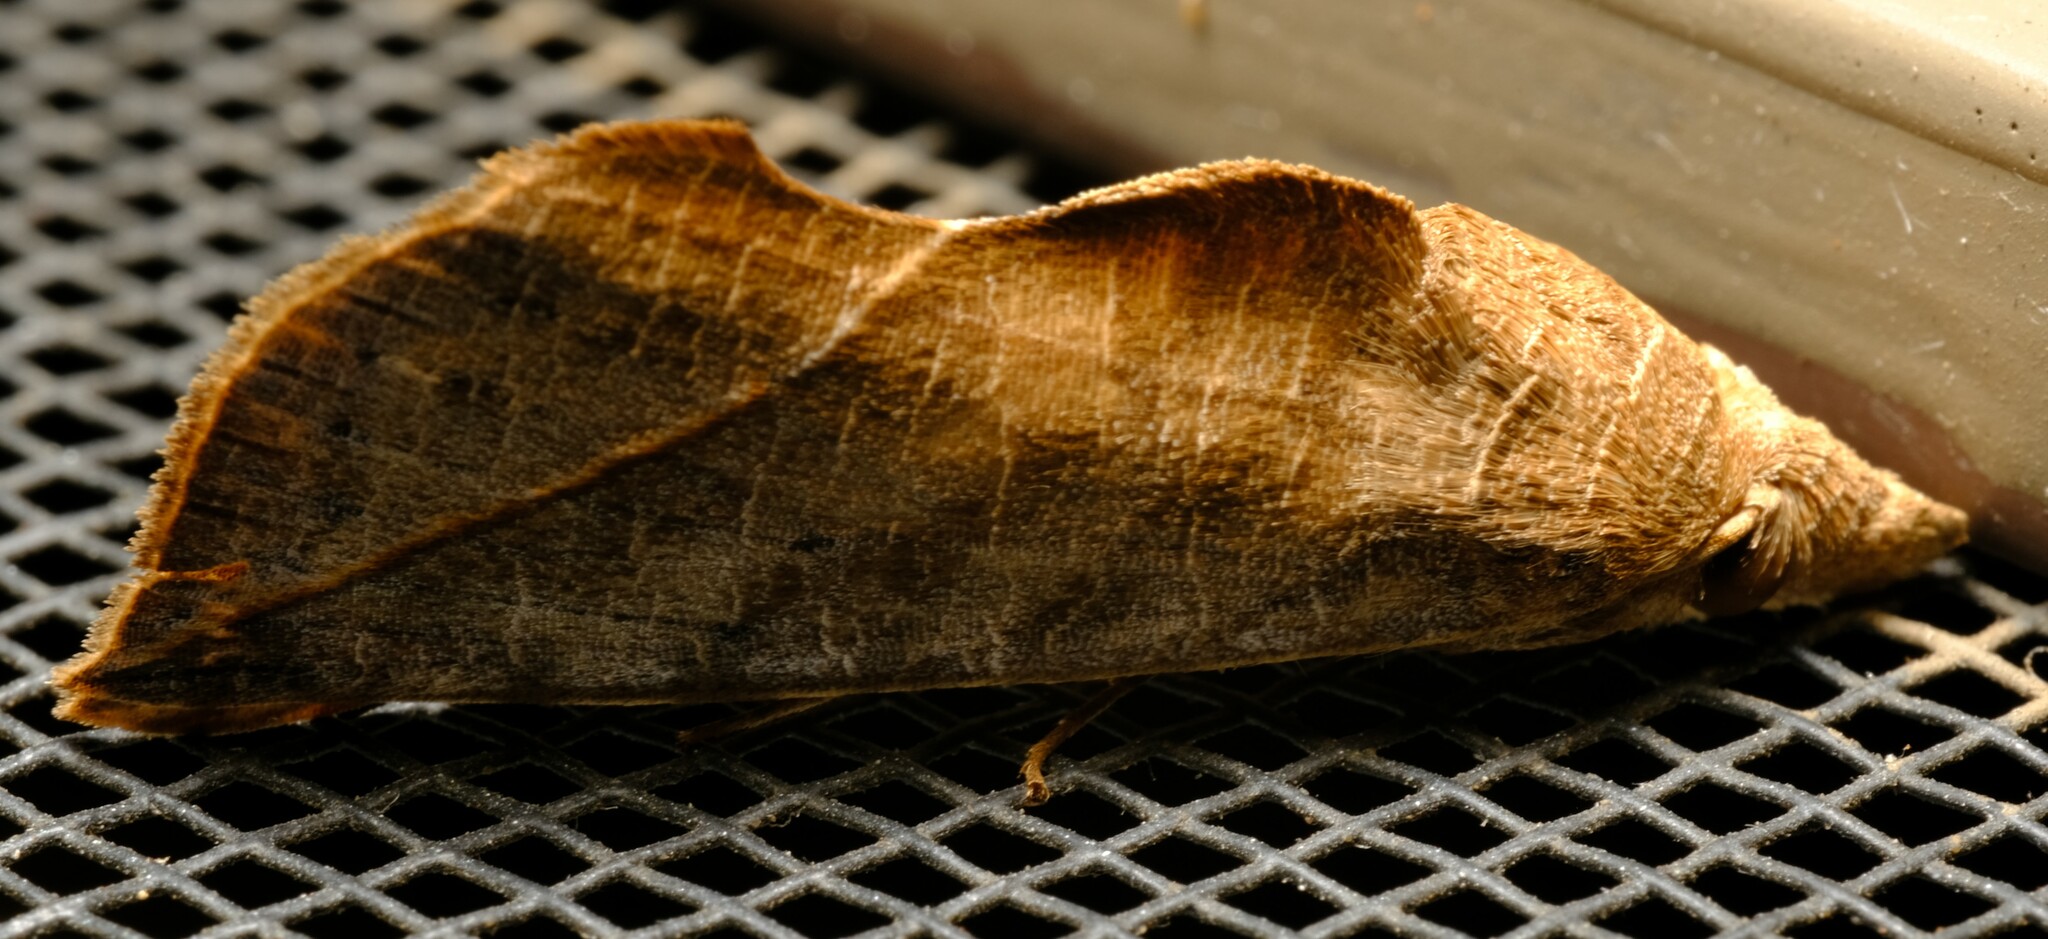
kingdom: Animalia
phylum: Arthropoda
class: Insecta
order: Lepidoptera
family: Erebidae
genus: Calyptra
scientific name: Calyptra minuticornis
